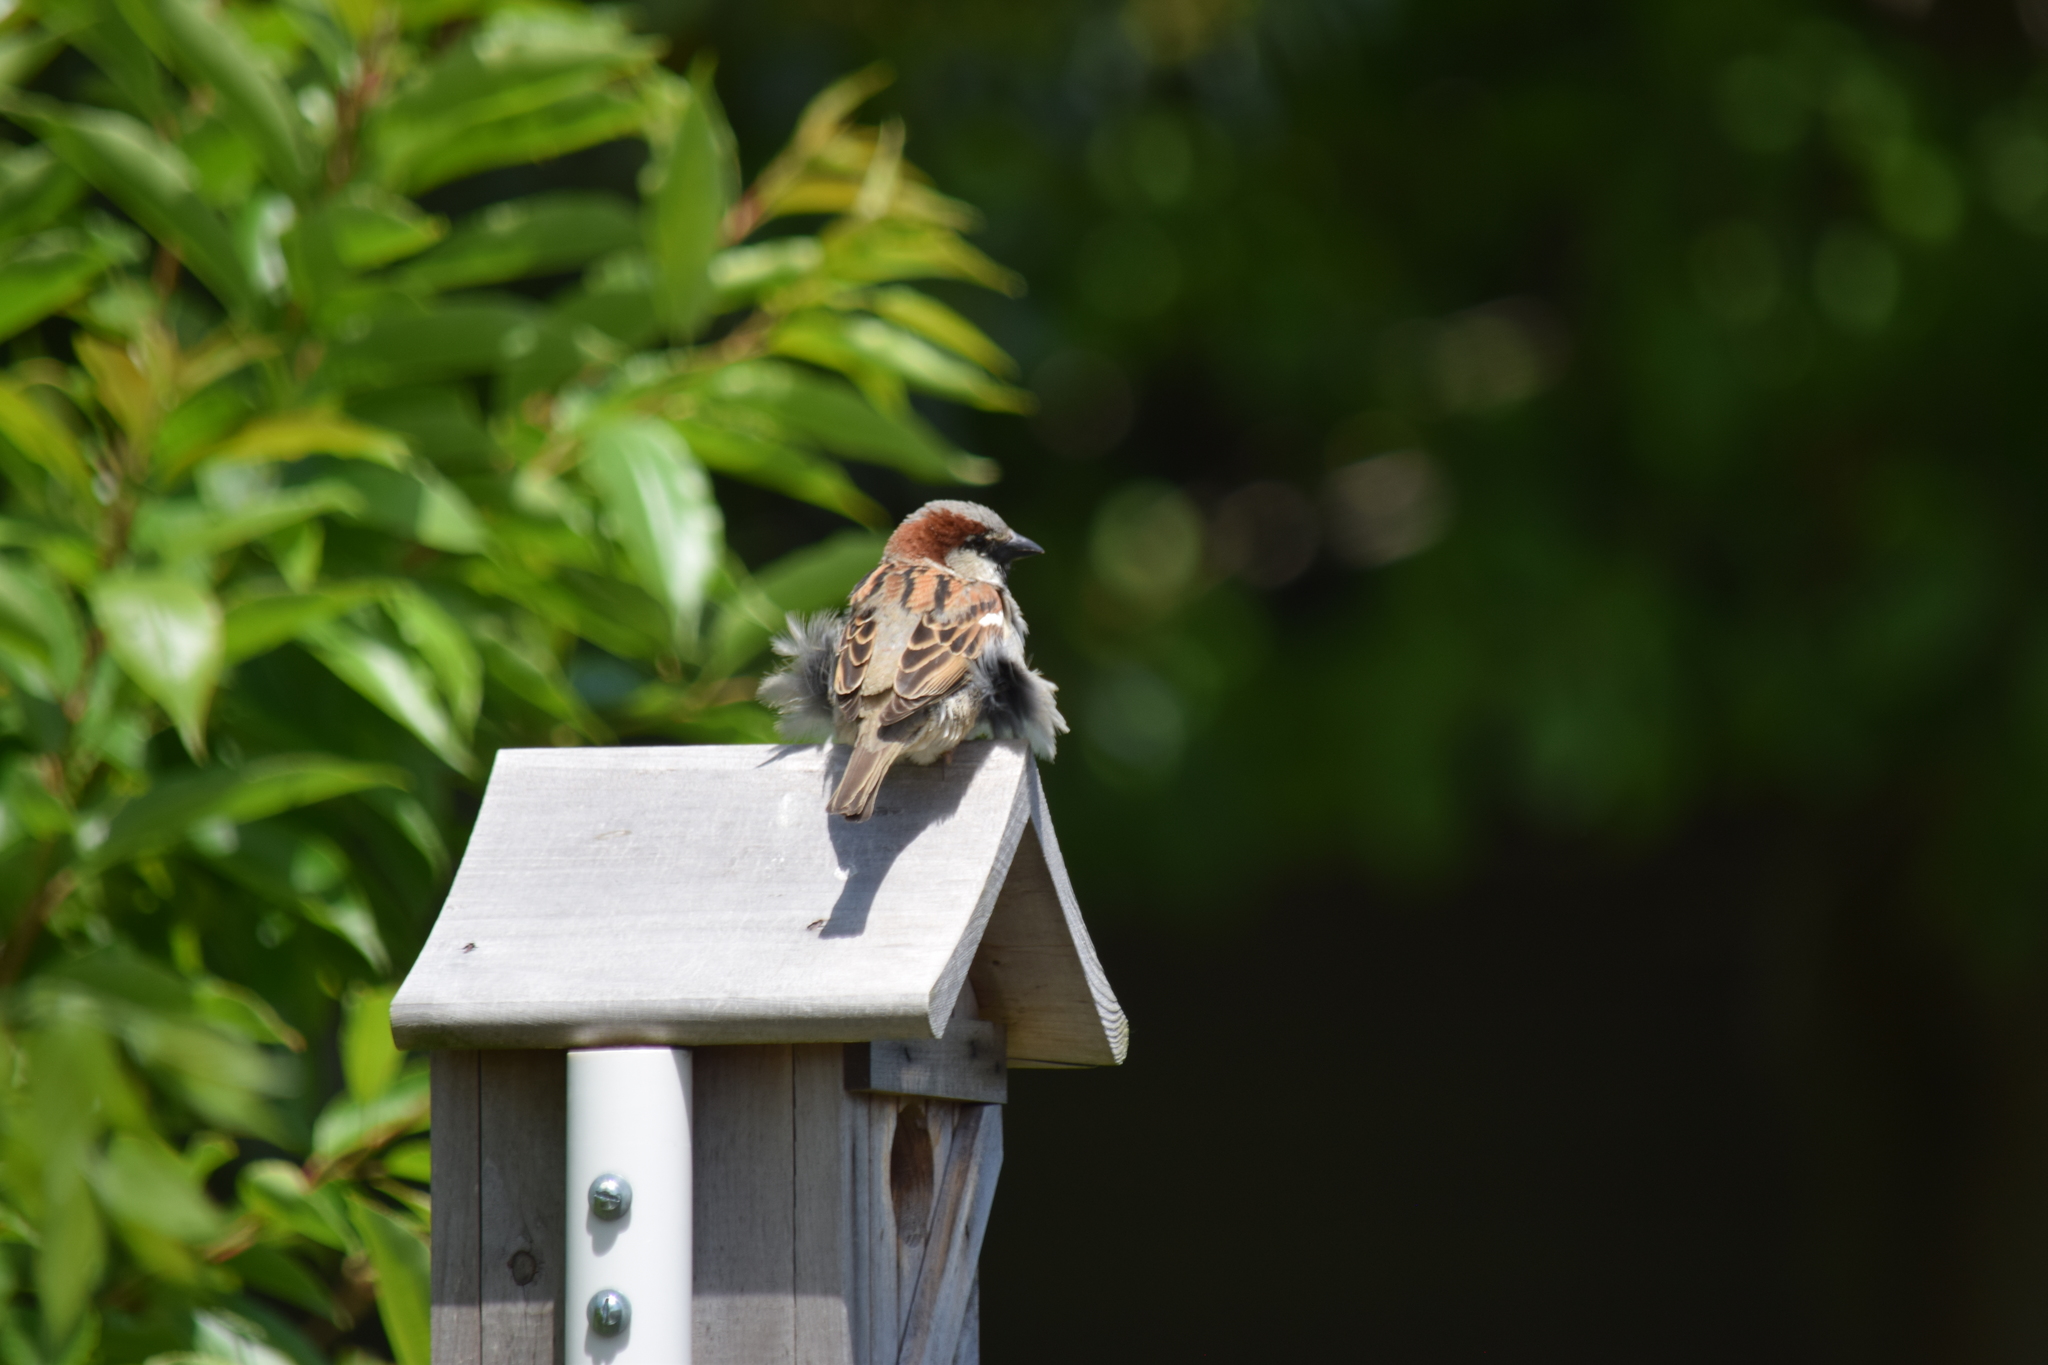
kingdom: Animalia
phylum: Chordata
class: Aves
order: Passeriformes
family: Passeridae
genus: Passer
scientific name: Passer domesticus
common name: House sparrow
